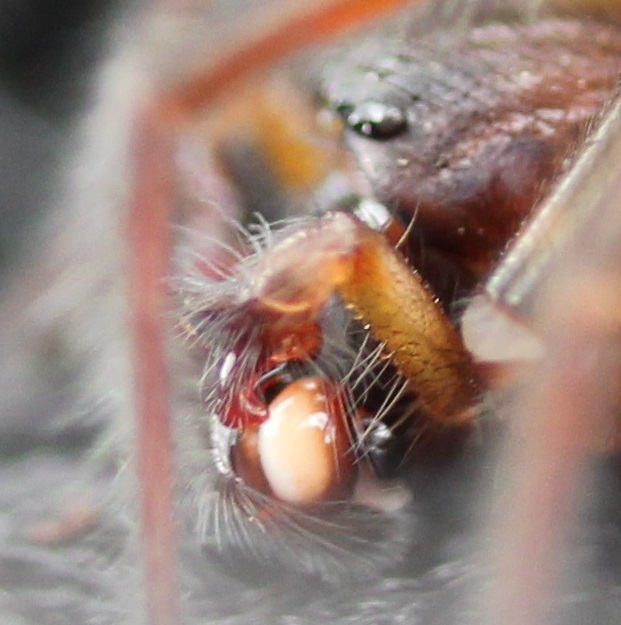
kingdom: Animalia
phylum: Arthropoda
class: Arachnida
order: Araneae
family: Amaurobiidae
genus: Amaurobius
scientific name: Amaurobius ferox
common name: Black laceweaver
